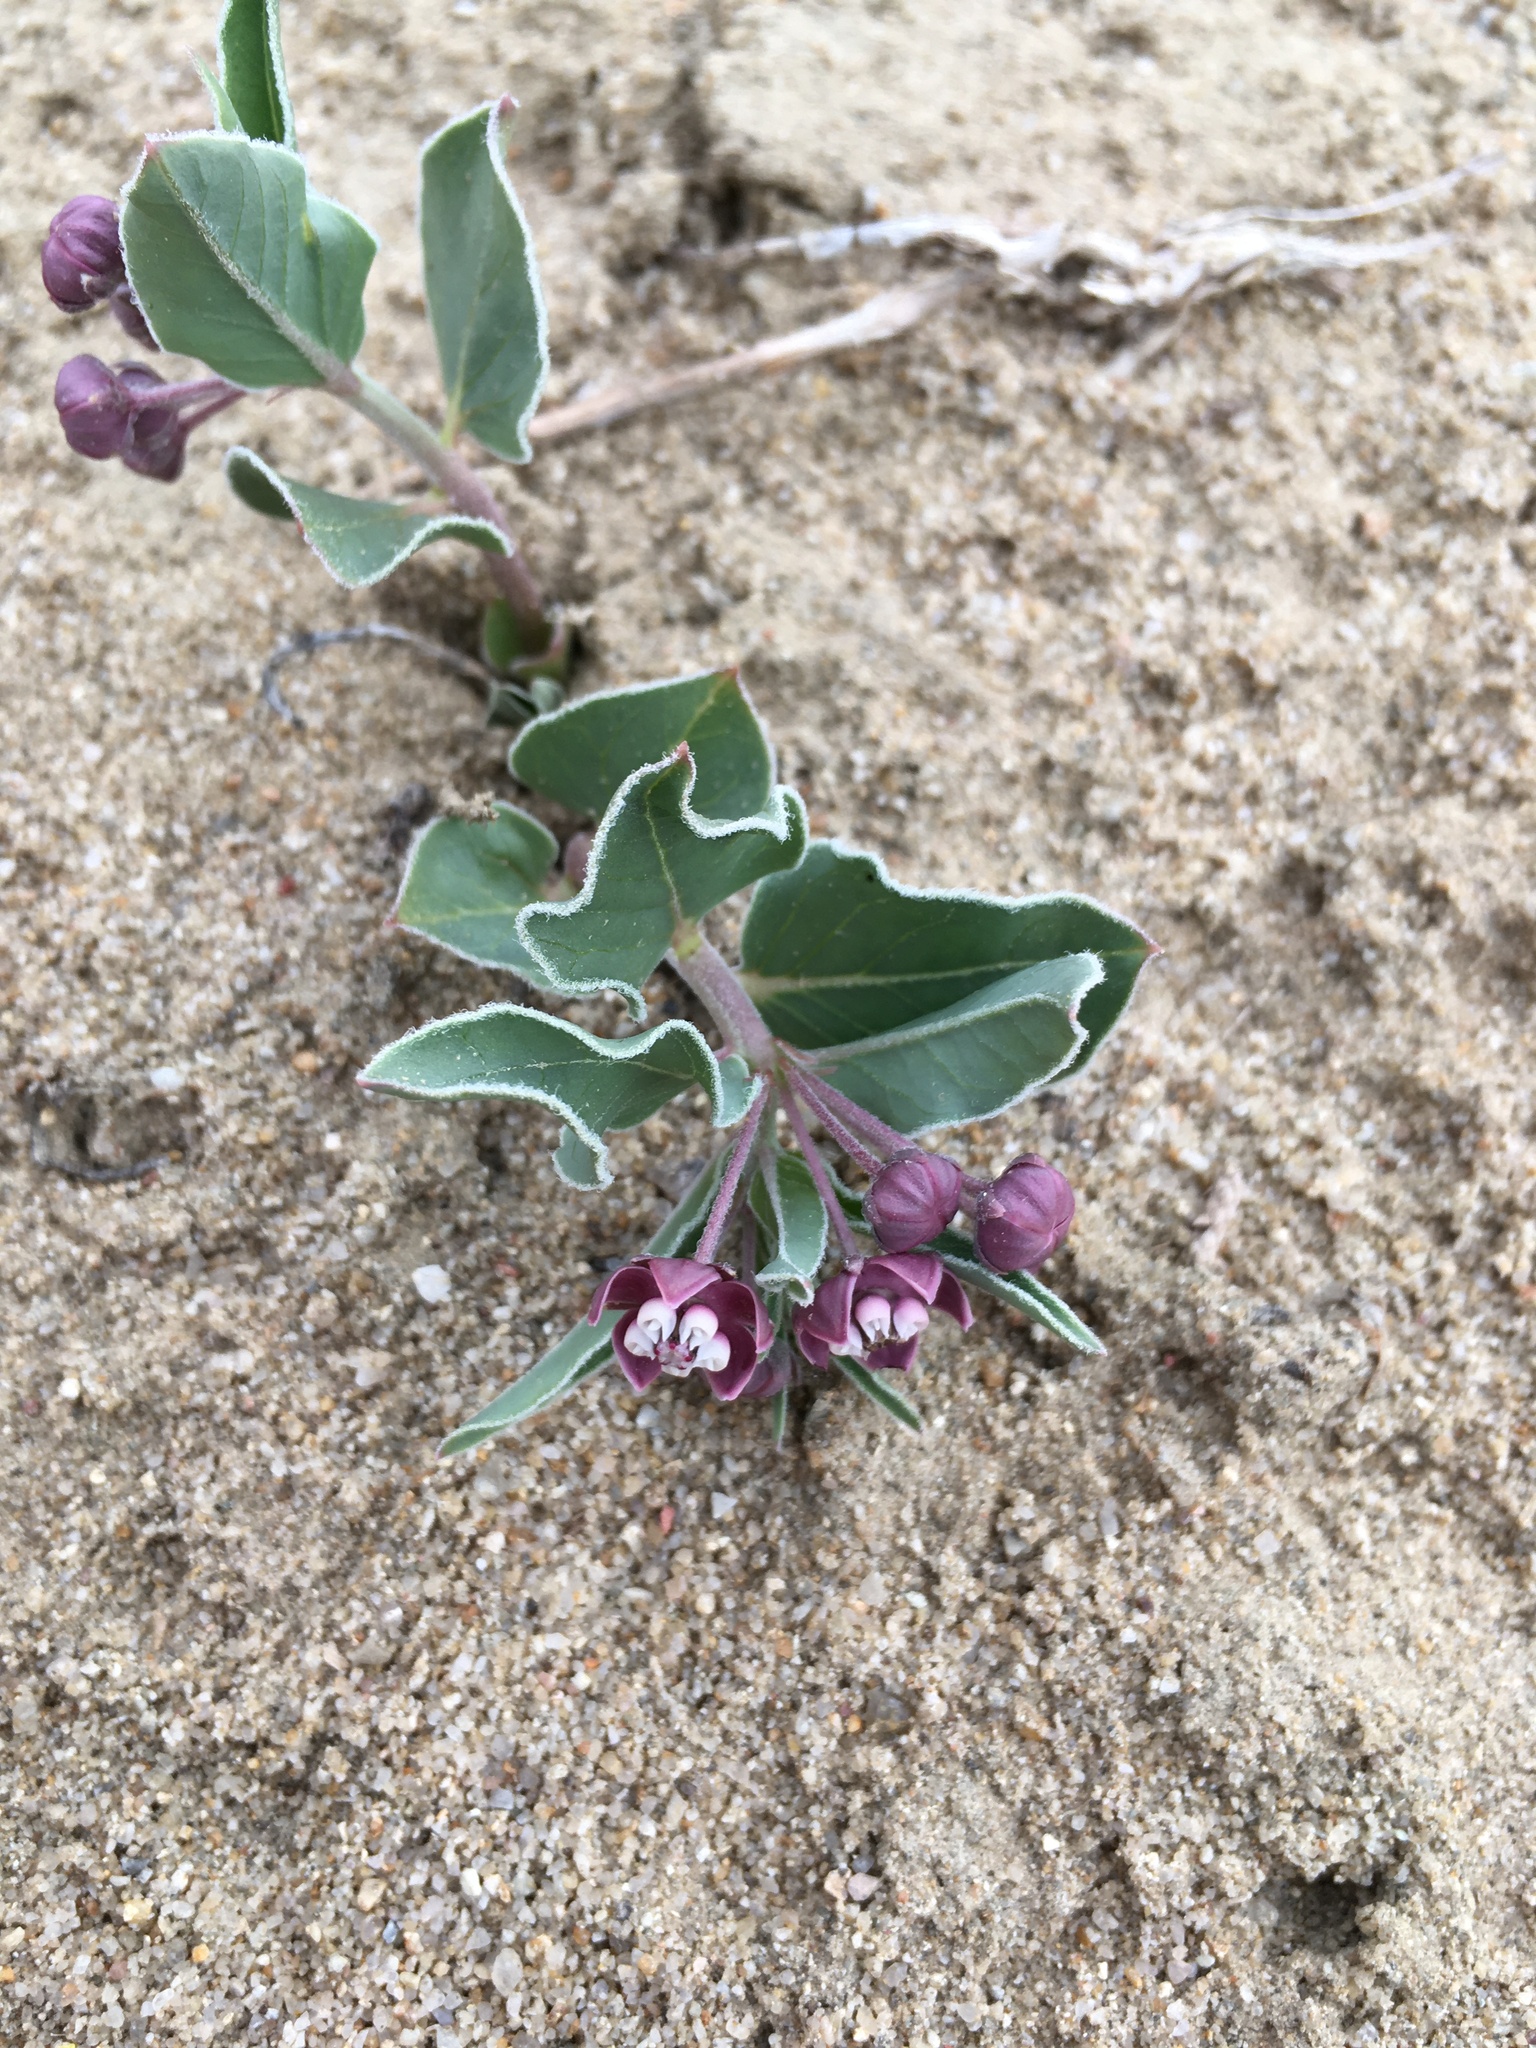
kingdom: Plantae
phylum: Tracheophyta
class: Magnoliopsida
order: Gentianales
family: Apocynaceae
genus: Asclepias
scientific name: Asclepias ruthiae
